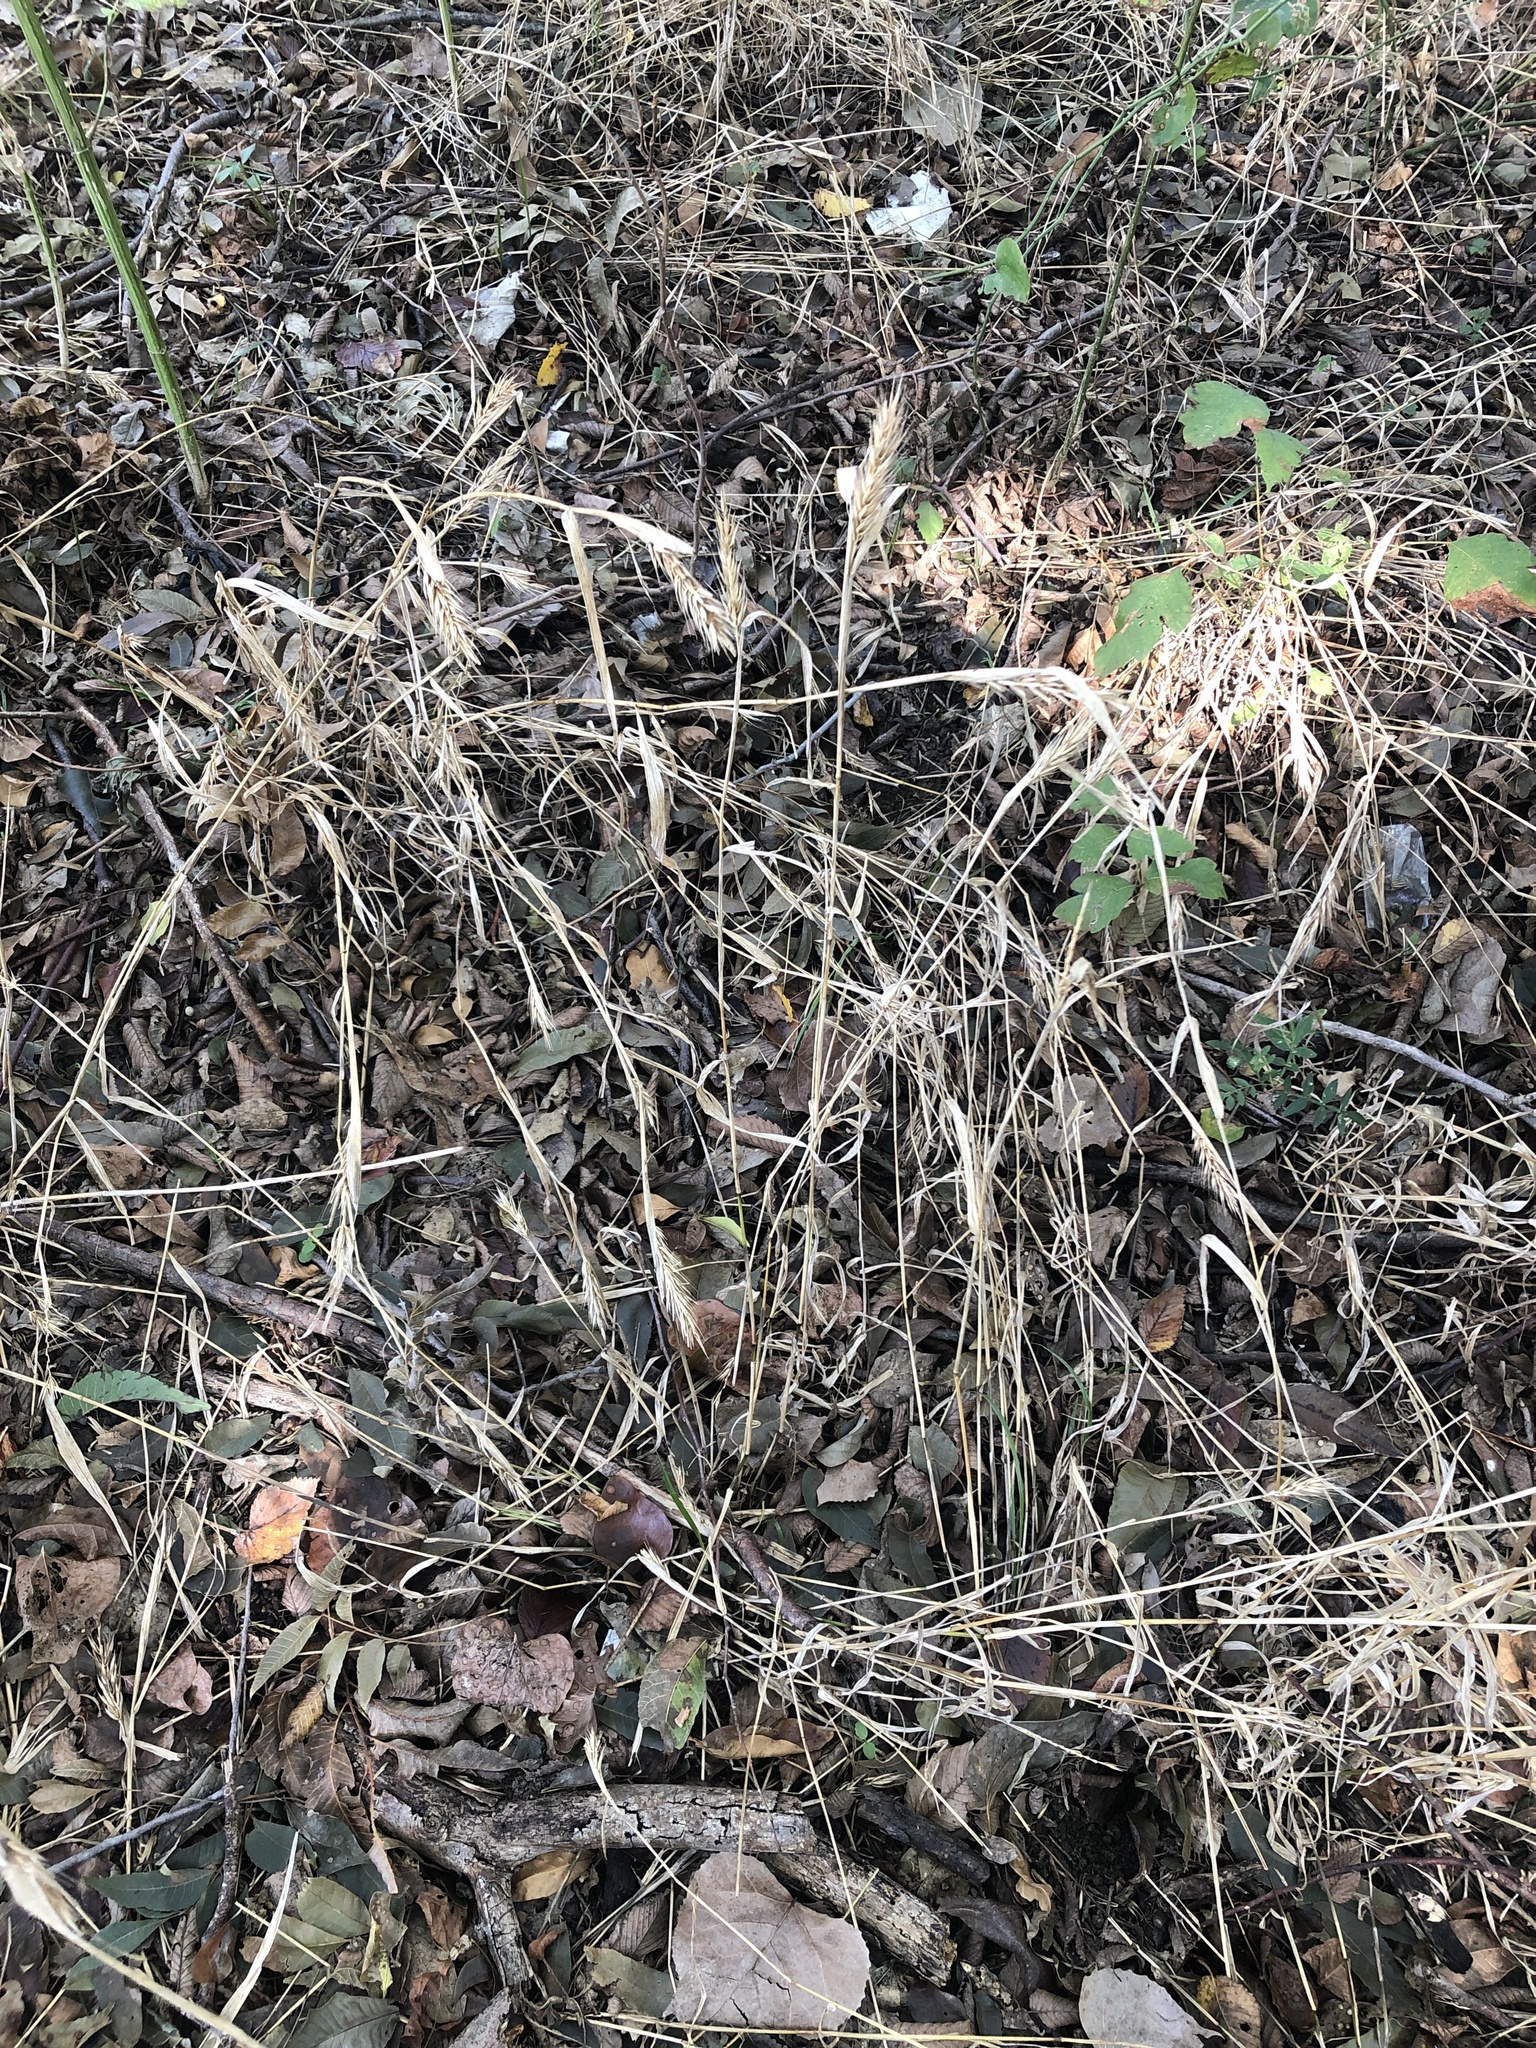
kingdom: Plantae
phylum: Tracheophyta
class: Liliopsida
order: Poales
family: Poaceae
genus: Elymus
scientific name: Elymus virginicus
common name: Common eastern wildrye
